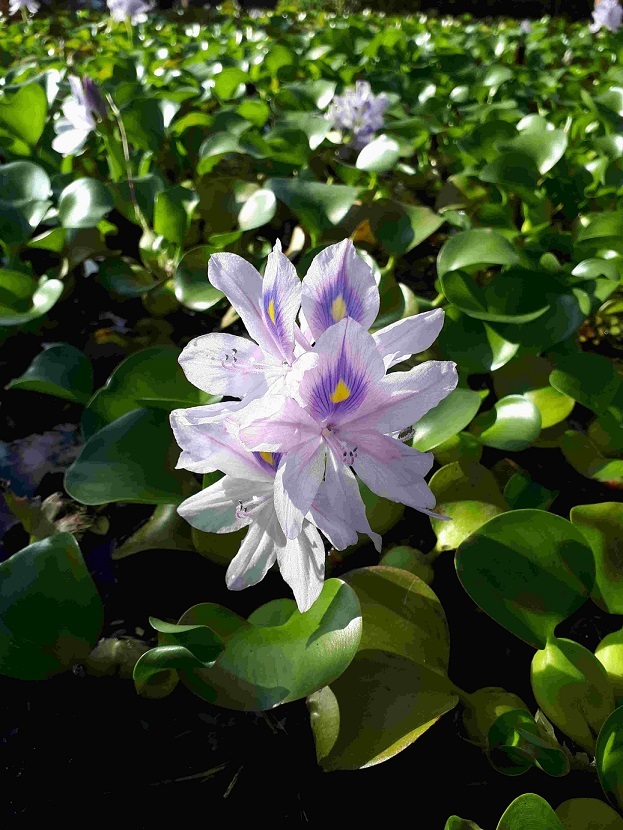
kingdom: Plantae
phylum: Tracheophyta
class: Liliopsida
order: Commelinales
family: Pontederiaceae
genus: Pontederia
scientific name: Pontederia crassipes
